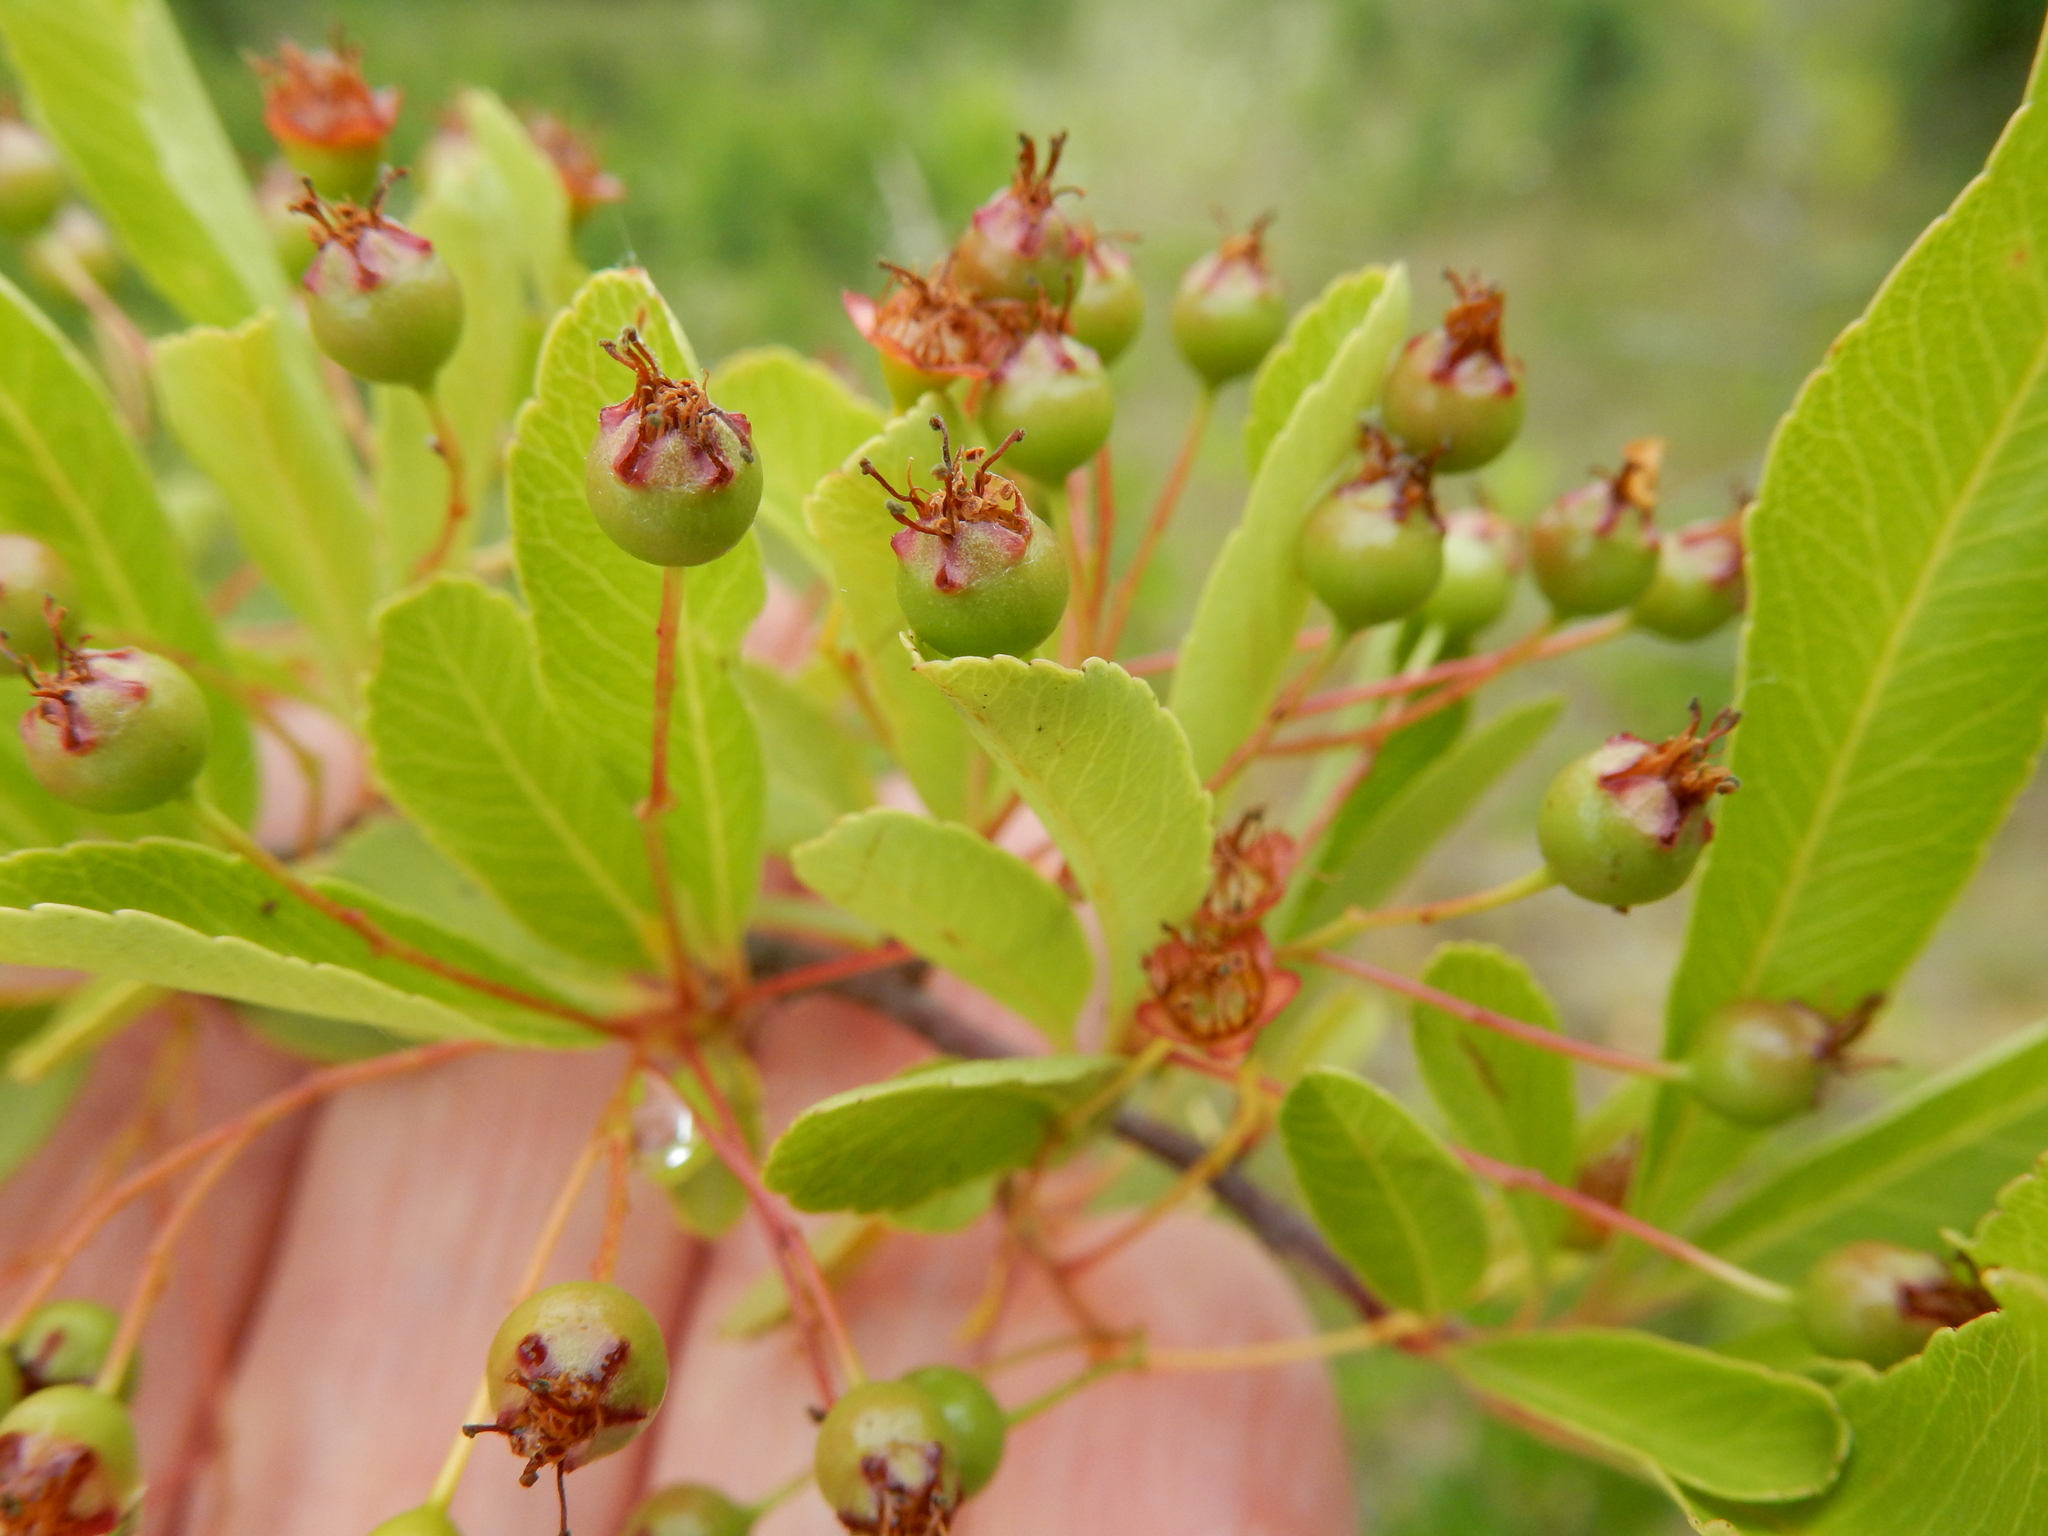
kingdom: Plantae
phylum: Tracheophyta
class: Magnoliopsida
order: Rosales
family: Rosaceae
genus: Pyracantha
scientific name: Pyracantha fortuneana
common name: Chinese firethorn
